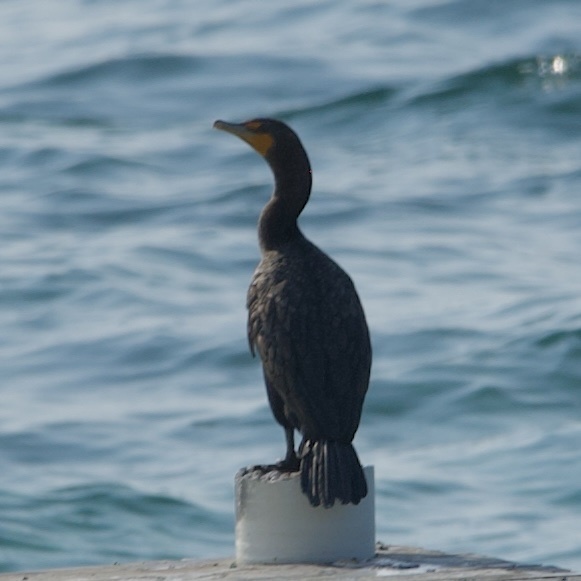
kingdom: Animalia
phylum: Chordata
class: Aves
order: Suliformes
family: Phalacrocoracidae
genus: Phalacrocorax
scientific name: Phalacrocorax auritus
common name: Double-crested cormorant
